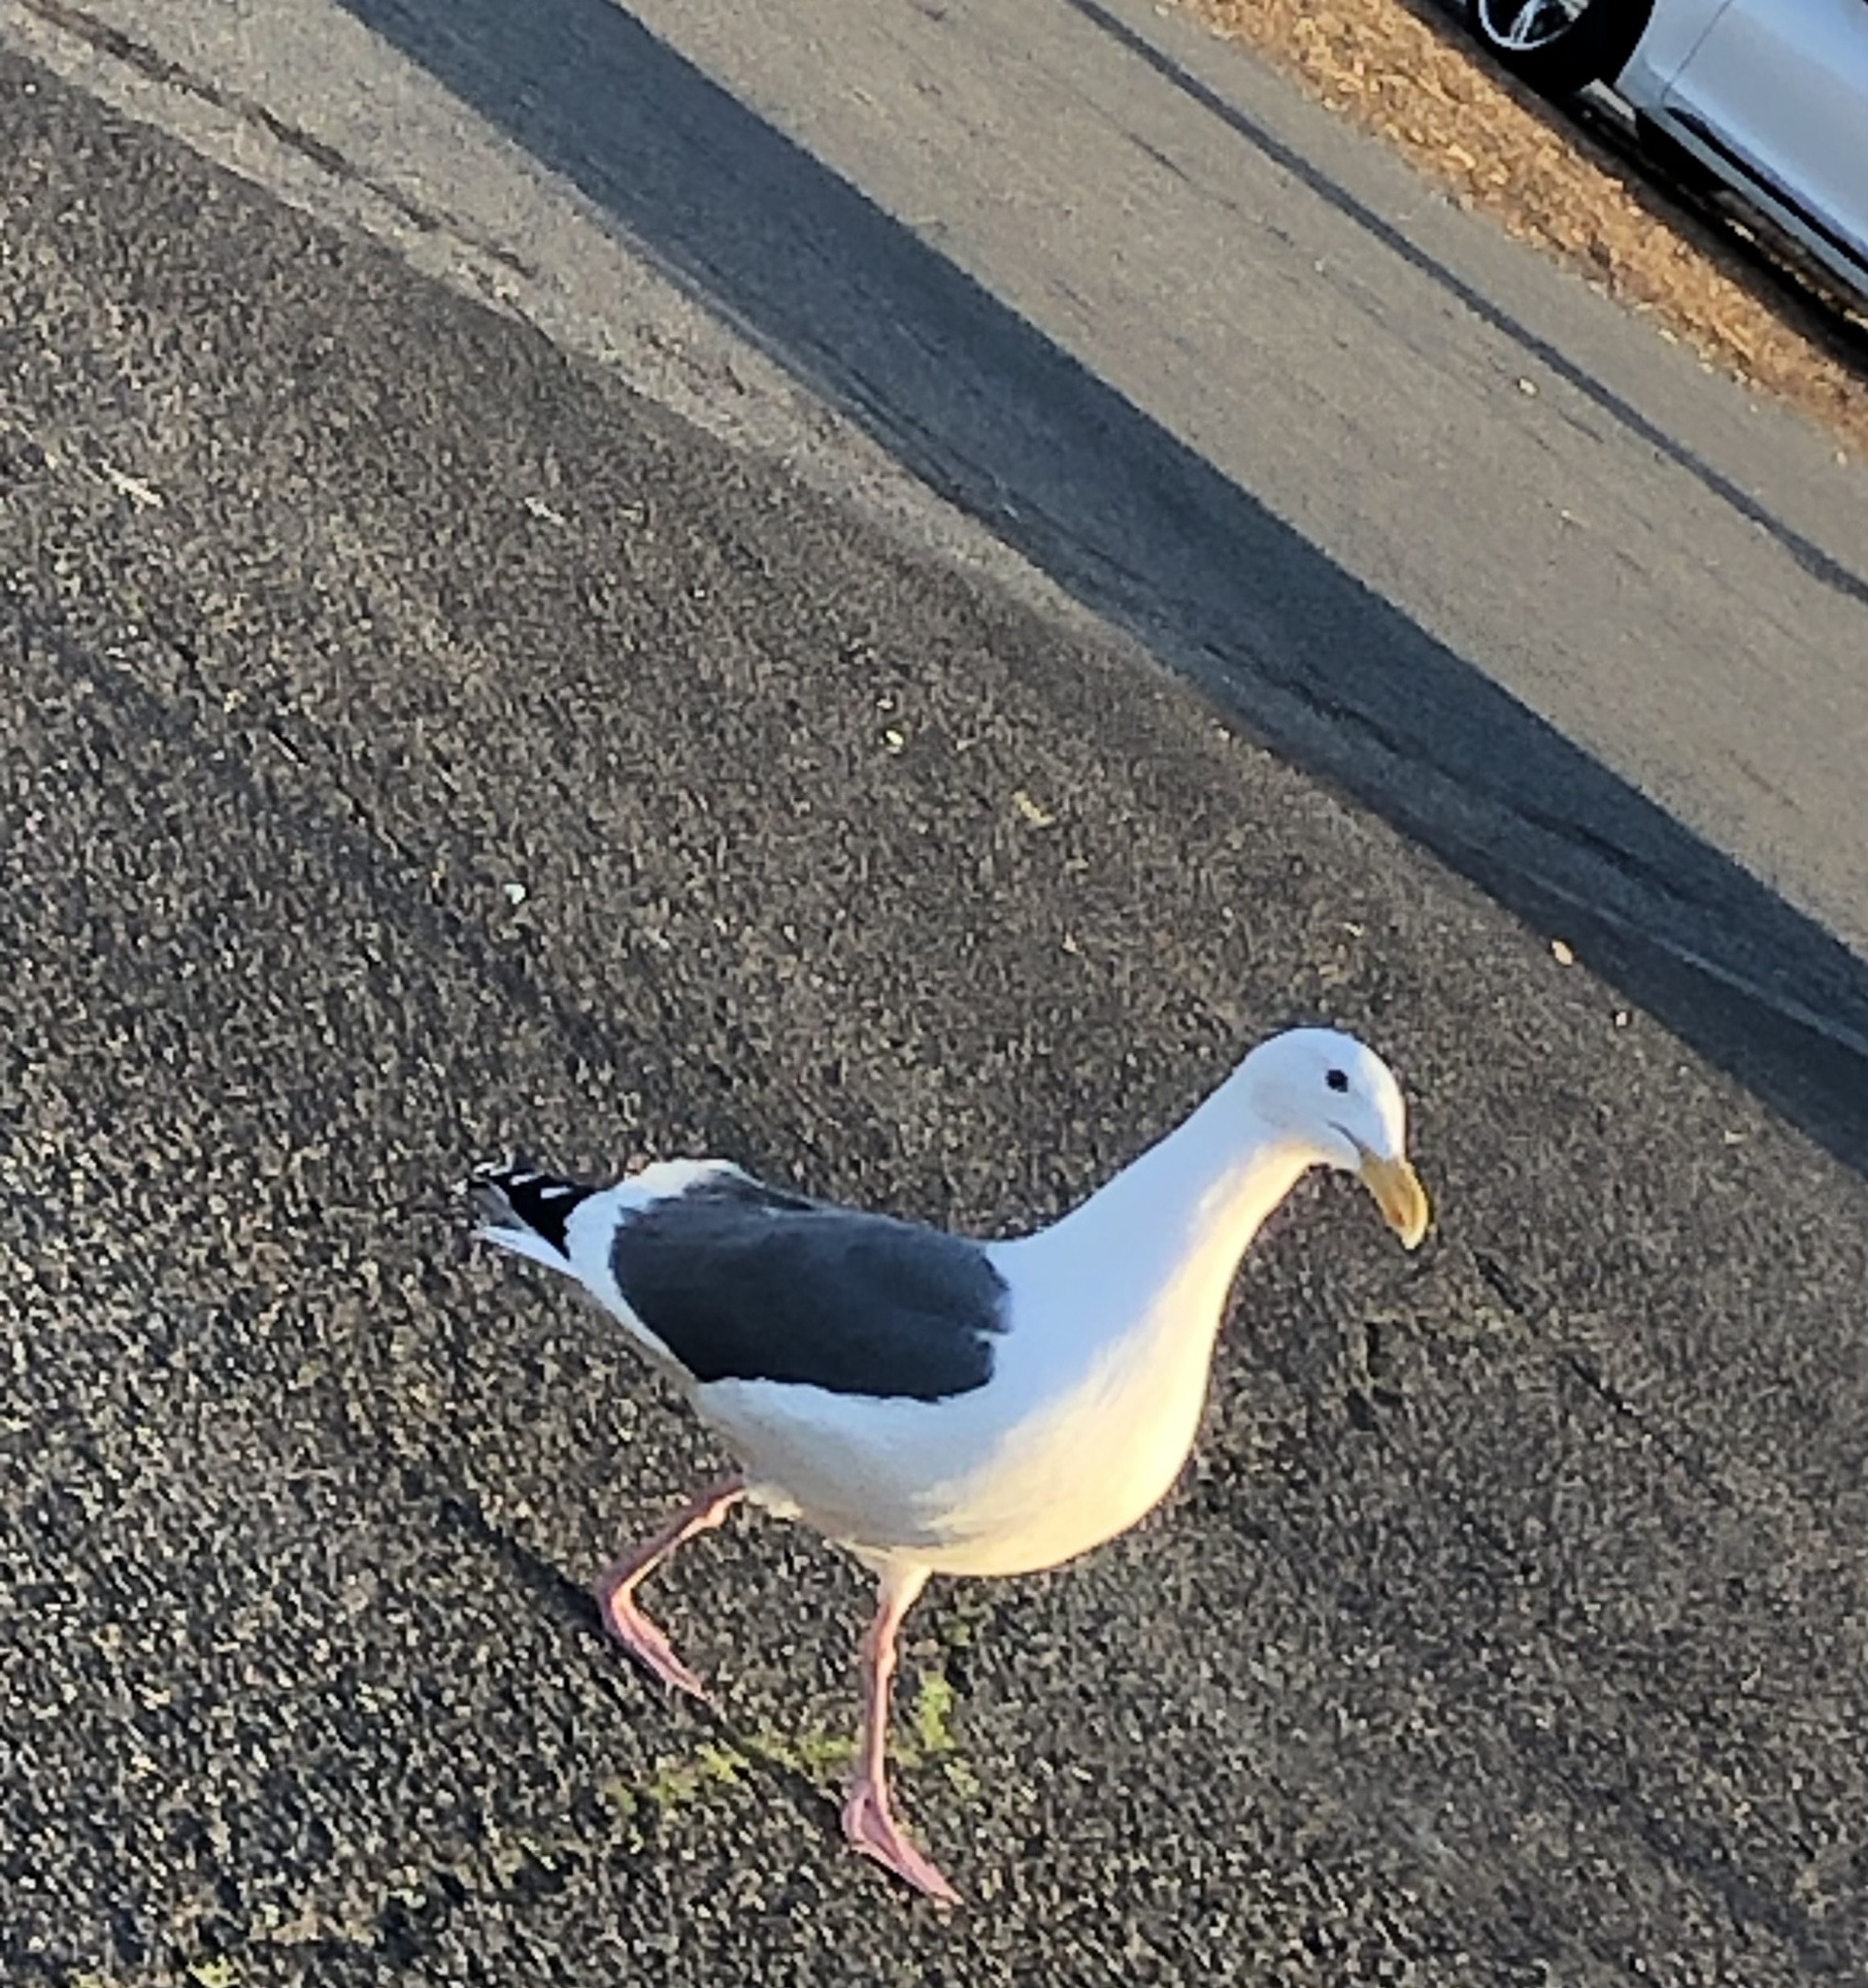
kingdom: Animalia
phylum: Chordata
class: Aves
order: Charadriiformes
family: Laridae
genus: Larus
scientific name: Larus occidentalis
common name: Western gull
